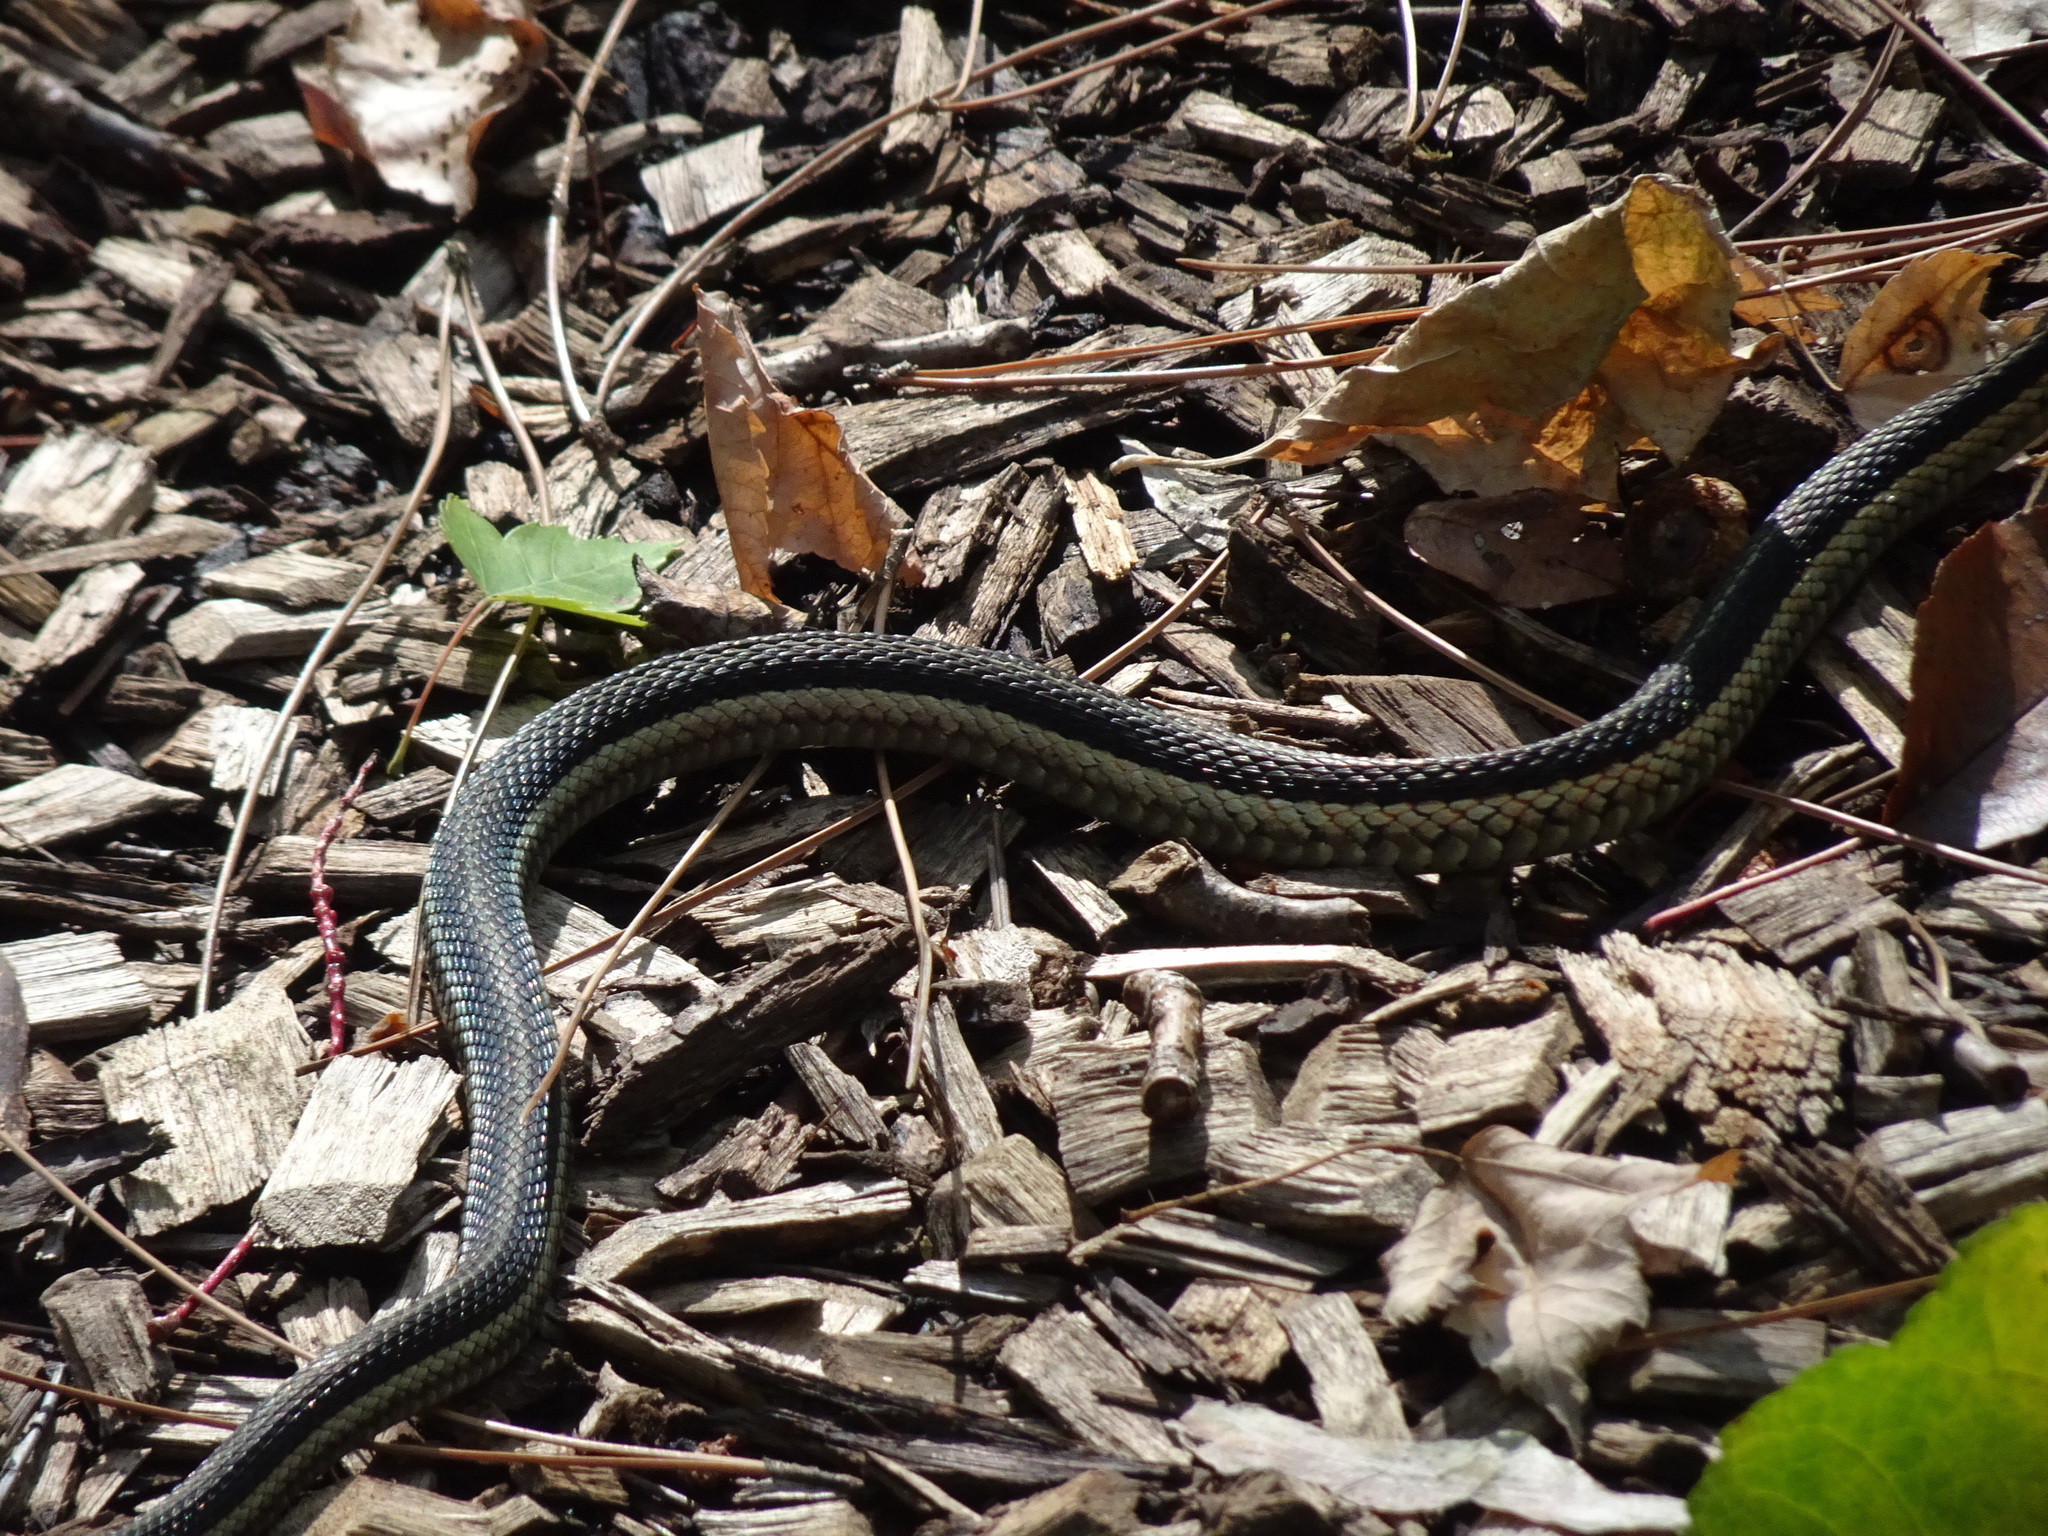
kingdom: Animalia
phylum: Chordata
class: Squamata
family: Colubridae
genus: Thamnophis
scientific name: Thamnophis sirtalis
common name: Common garter snake
